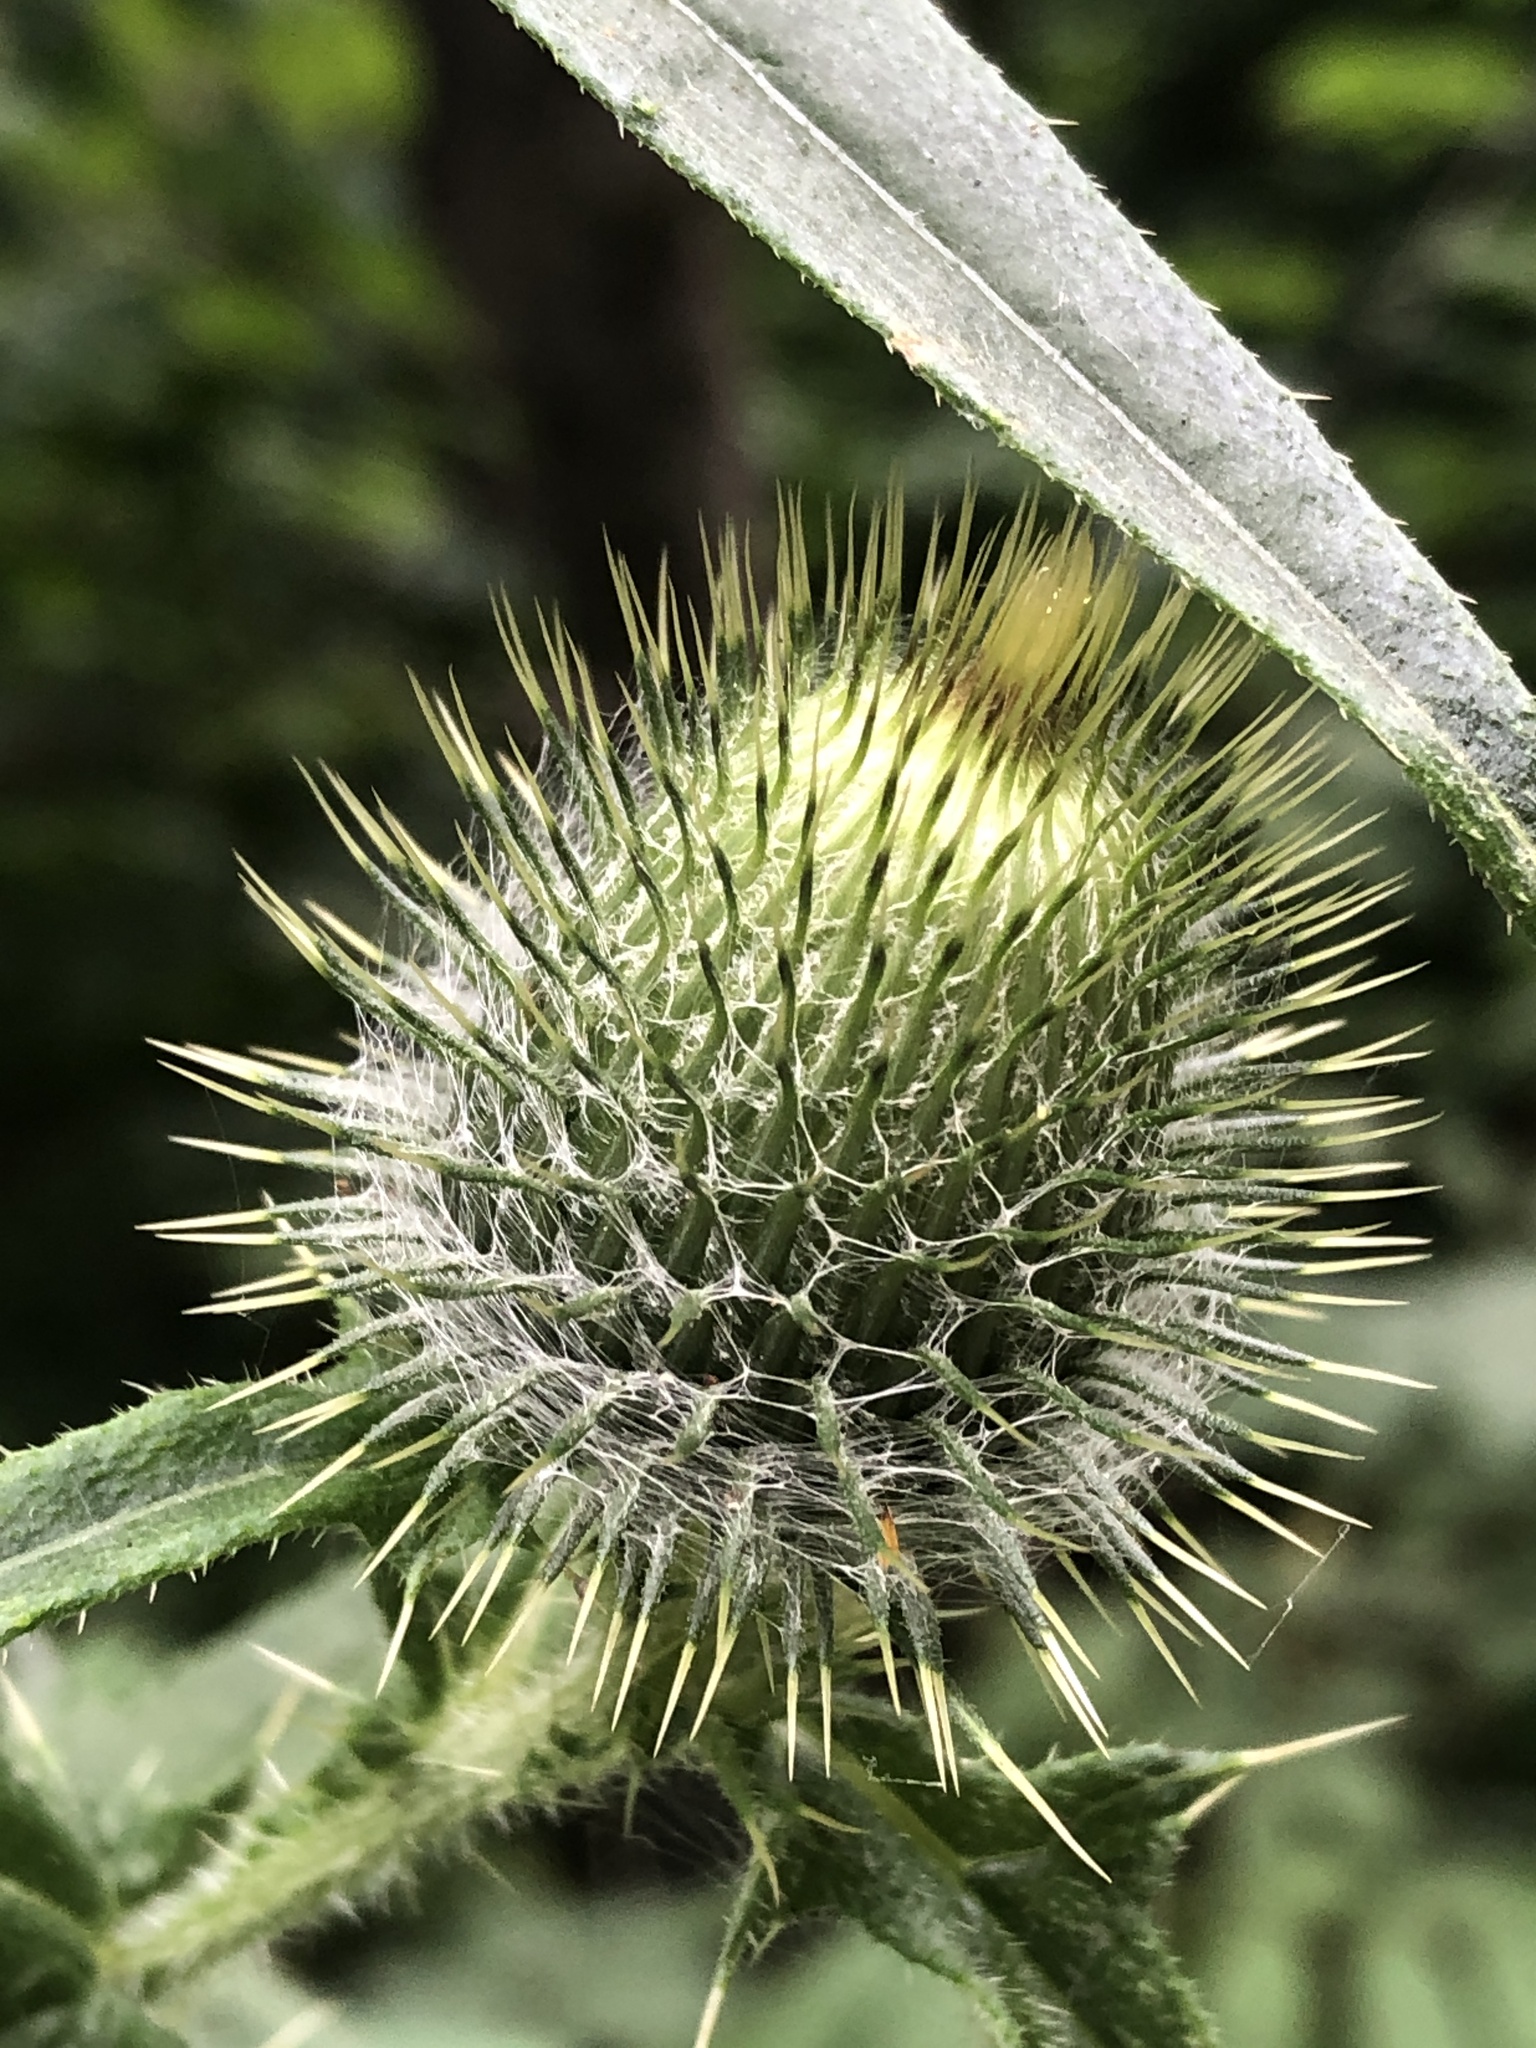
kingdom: Plantae
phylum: Tracheophyta
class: Magnoliopsida
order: Asterales
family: Asteraceae
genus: Cirsium
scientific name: Cirsium vulgare
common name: Bull thistle
